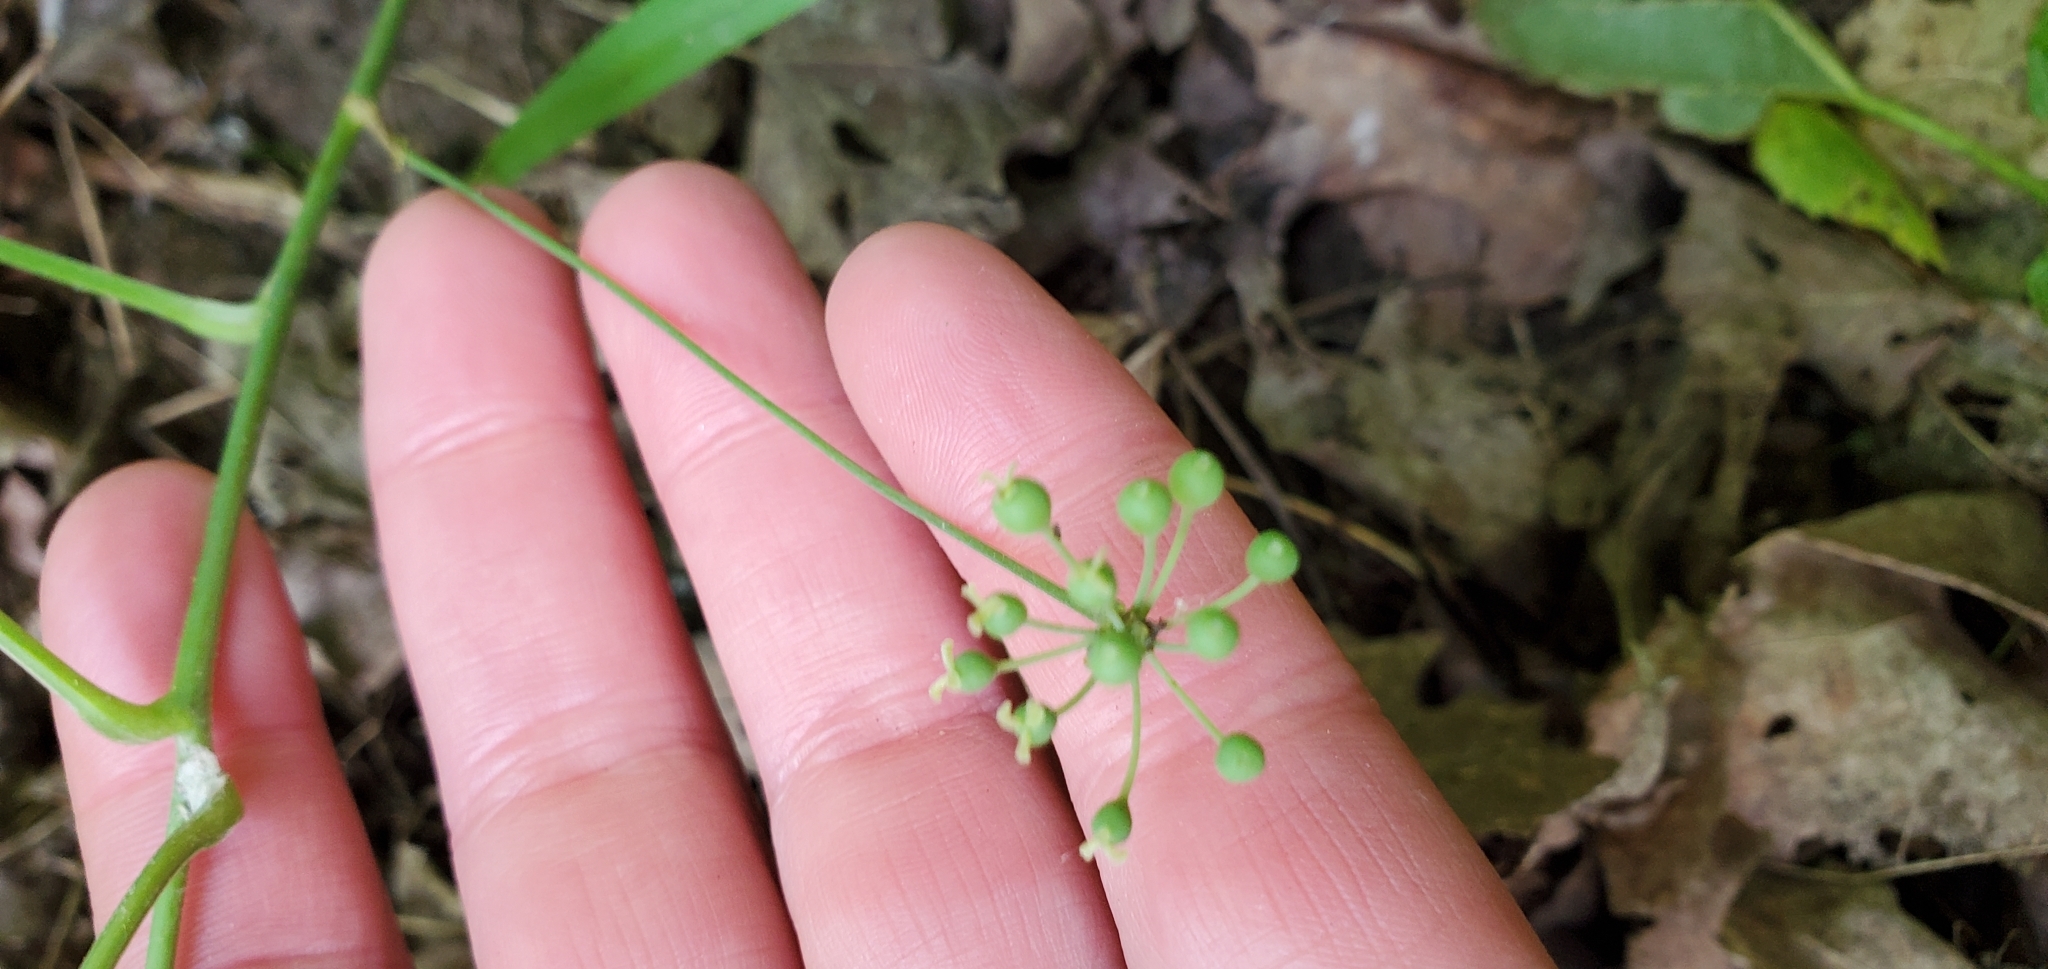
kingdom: Plantae
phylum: Tracheophyta
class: Liliopsida
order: Liliales
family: Smilacaceae
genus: Smilax
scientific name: Smilax ecirrhata
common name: Upright carrionflower
